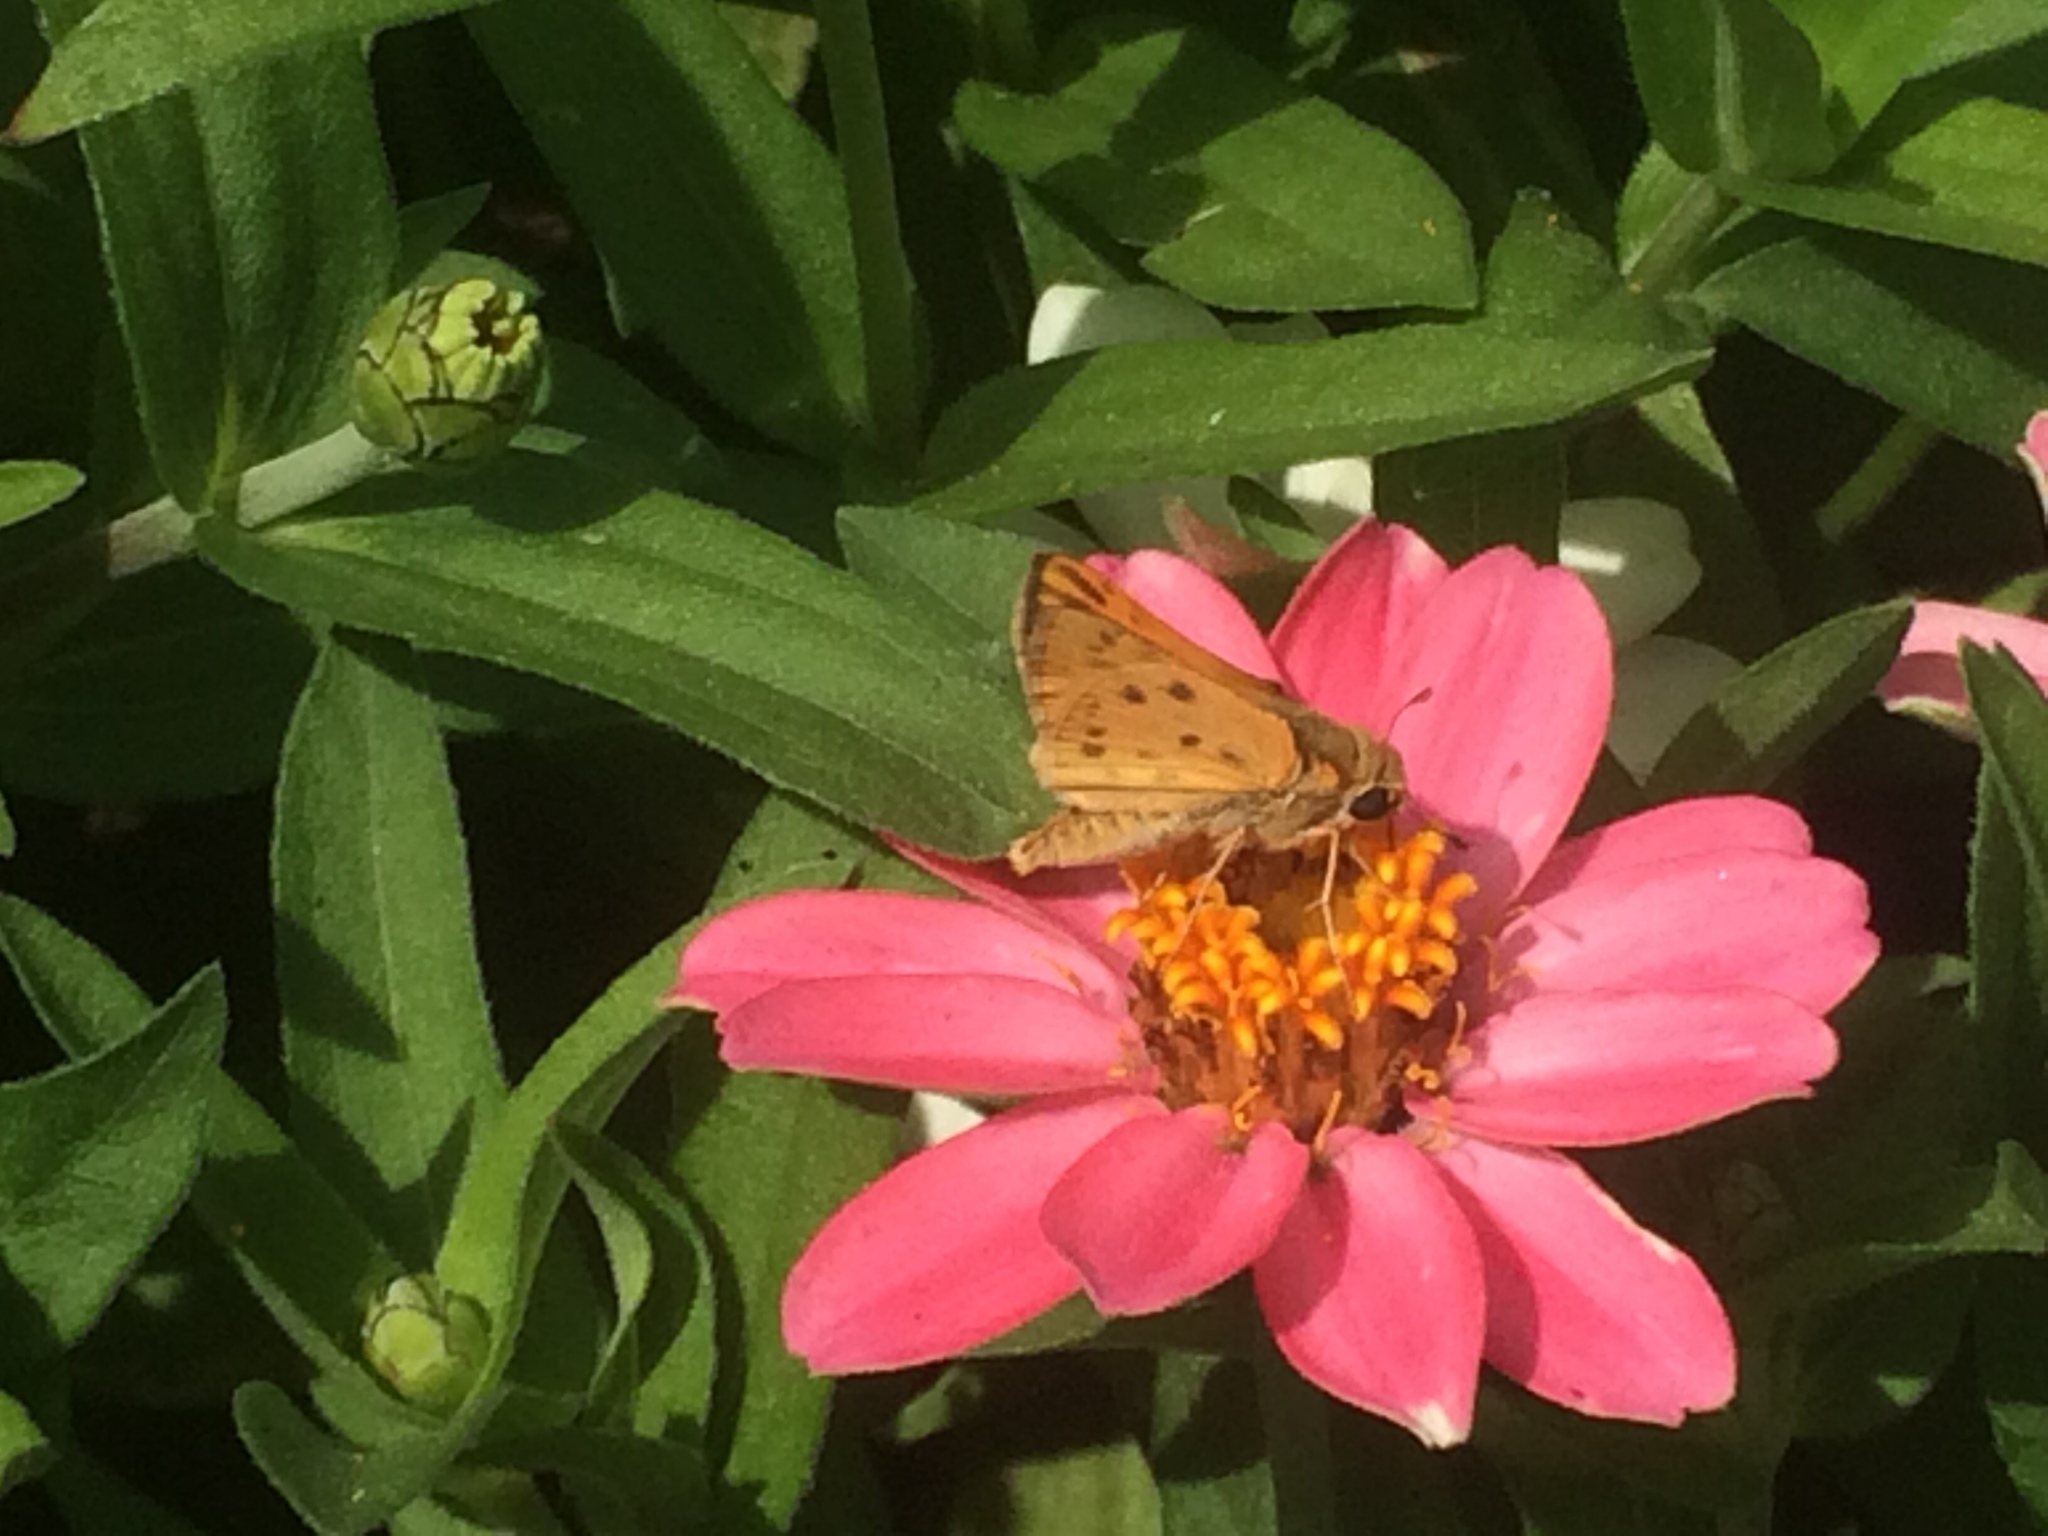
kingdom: Animalia
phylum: Arthropoda
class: Insecta
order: Lepidoptera
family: Hesperiidae
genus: Hylephila
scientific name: Hylephila phyleus
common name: Fiery skipper
